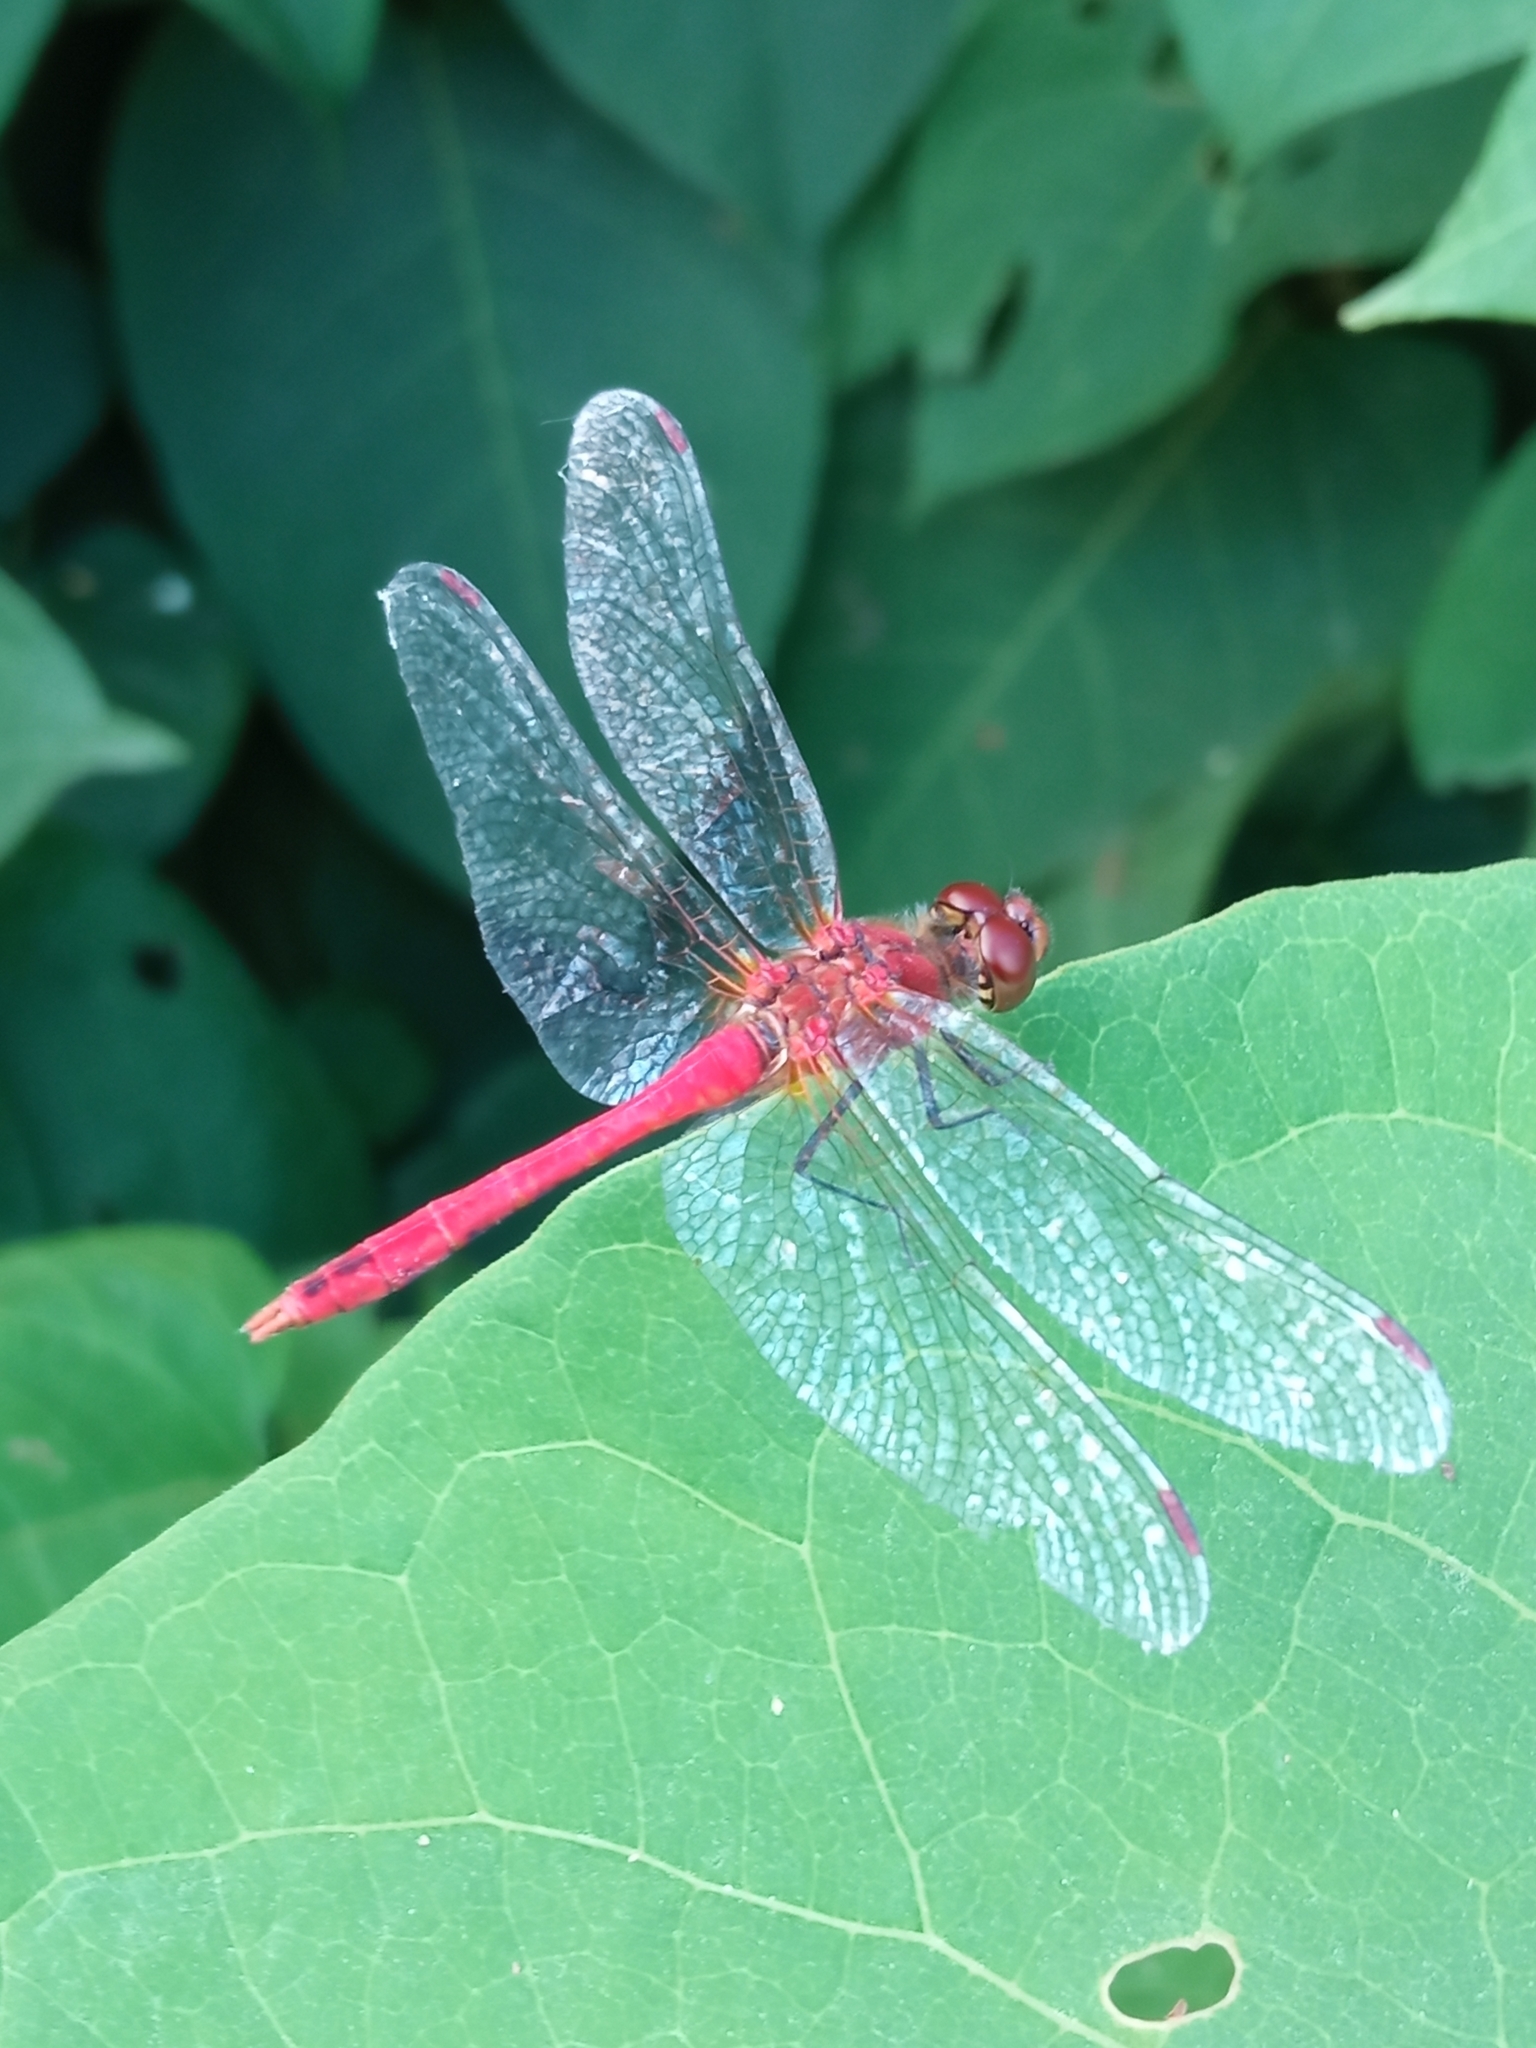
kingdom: Animalia
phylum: Arthropoda
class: Insecta
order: Odonata
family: Libellulidae
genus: Sympetrum
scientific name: Sympetrum sanguineum
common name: Ruddy darter
